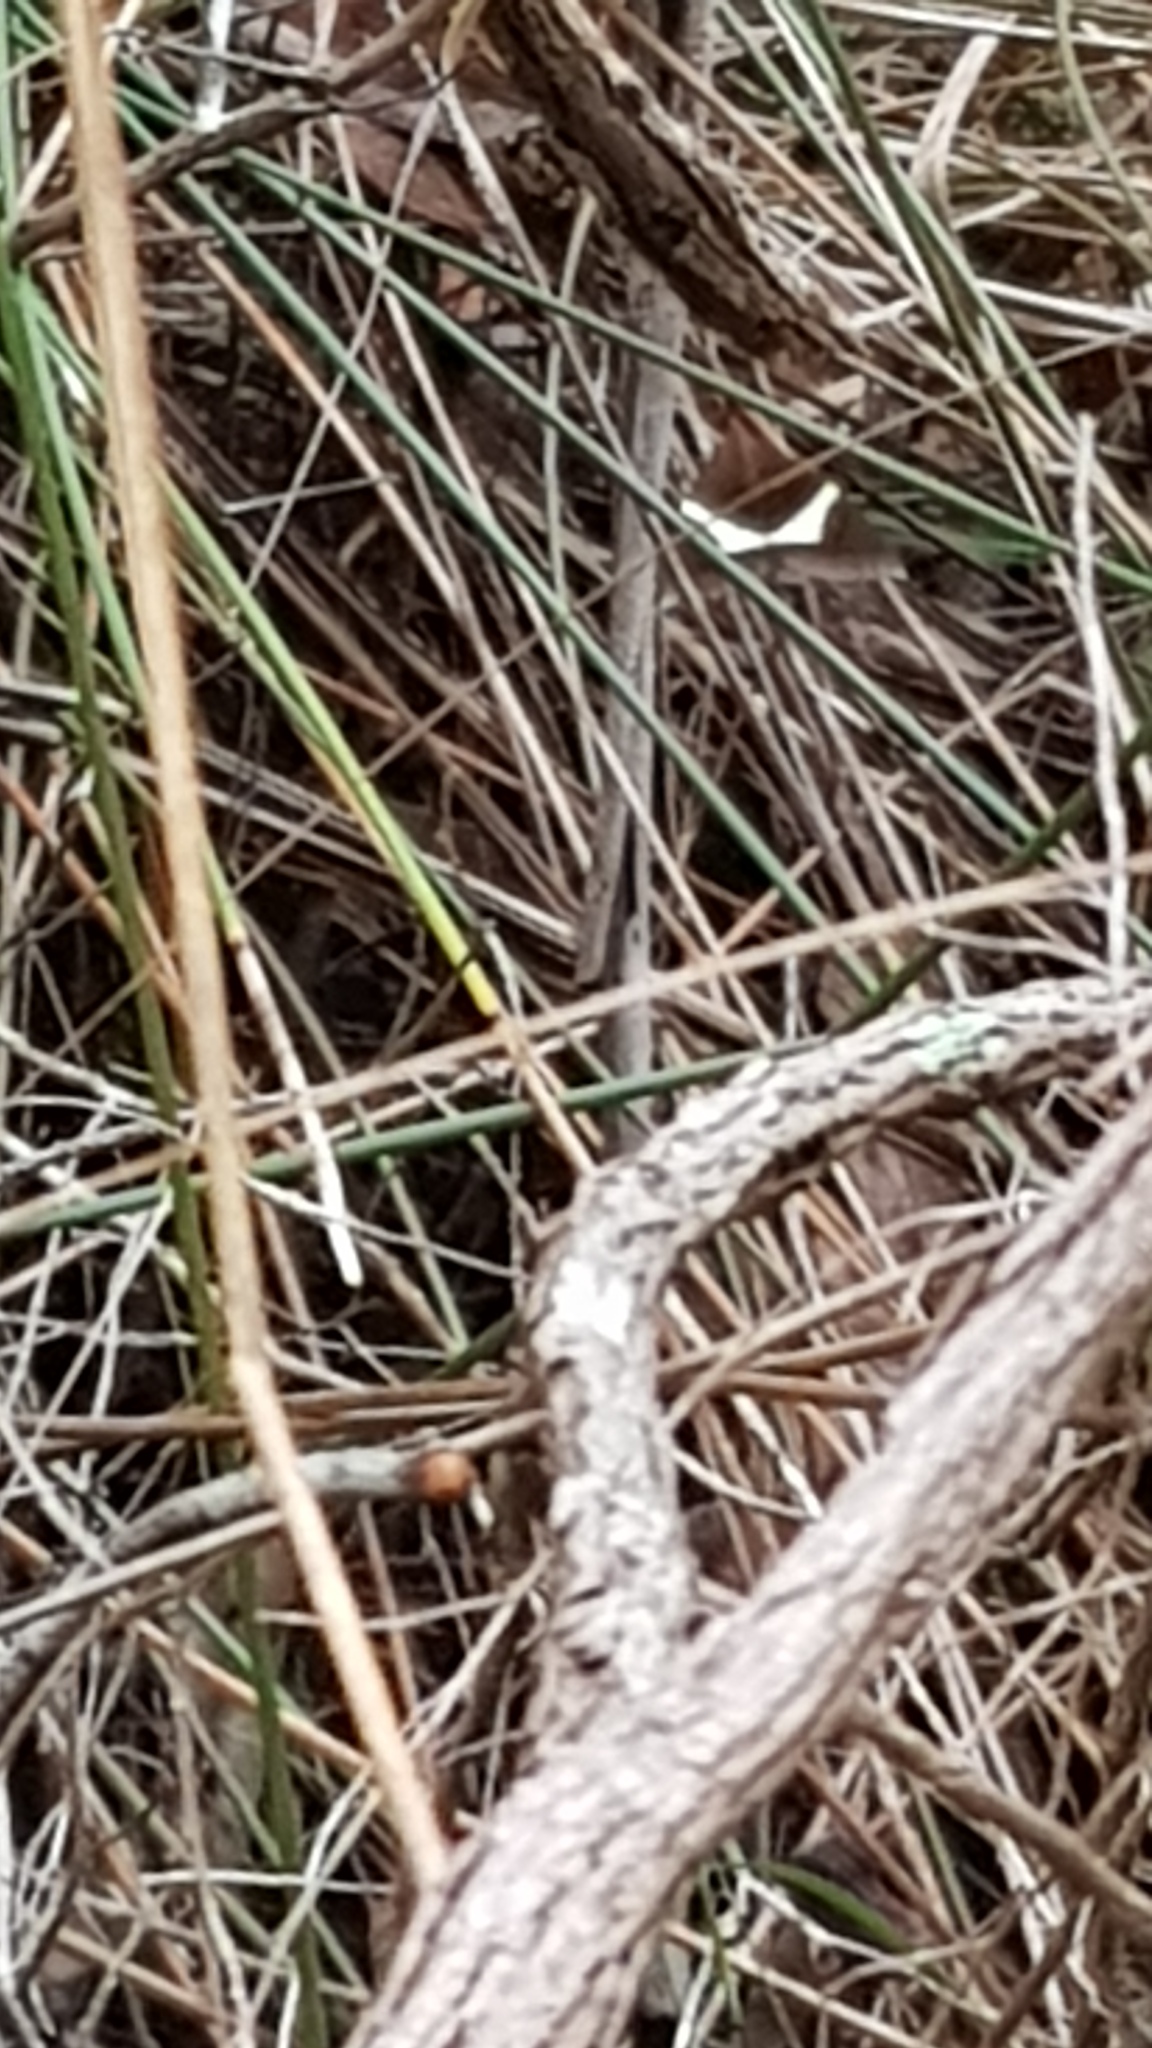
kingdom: Animalia
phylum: Arthropoda
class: Insecta
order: Lepidoptera
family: Geometridae
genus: Epidesmia
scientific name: Epidesmia tricolor
